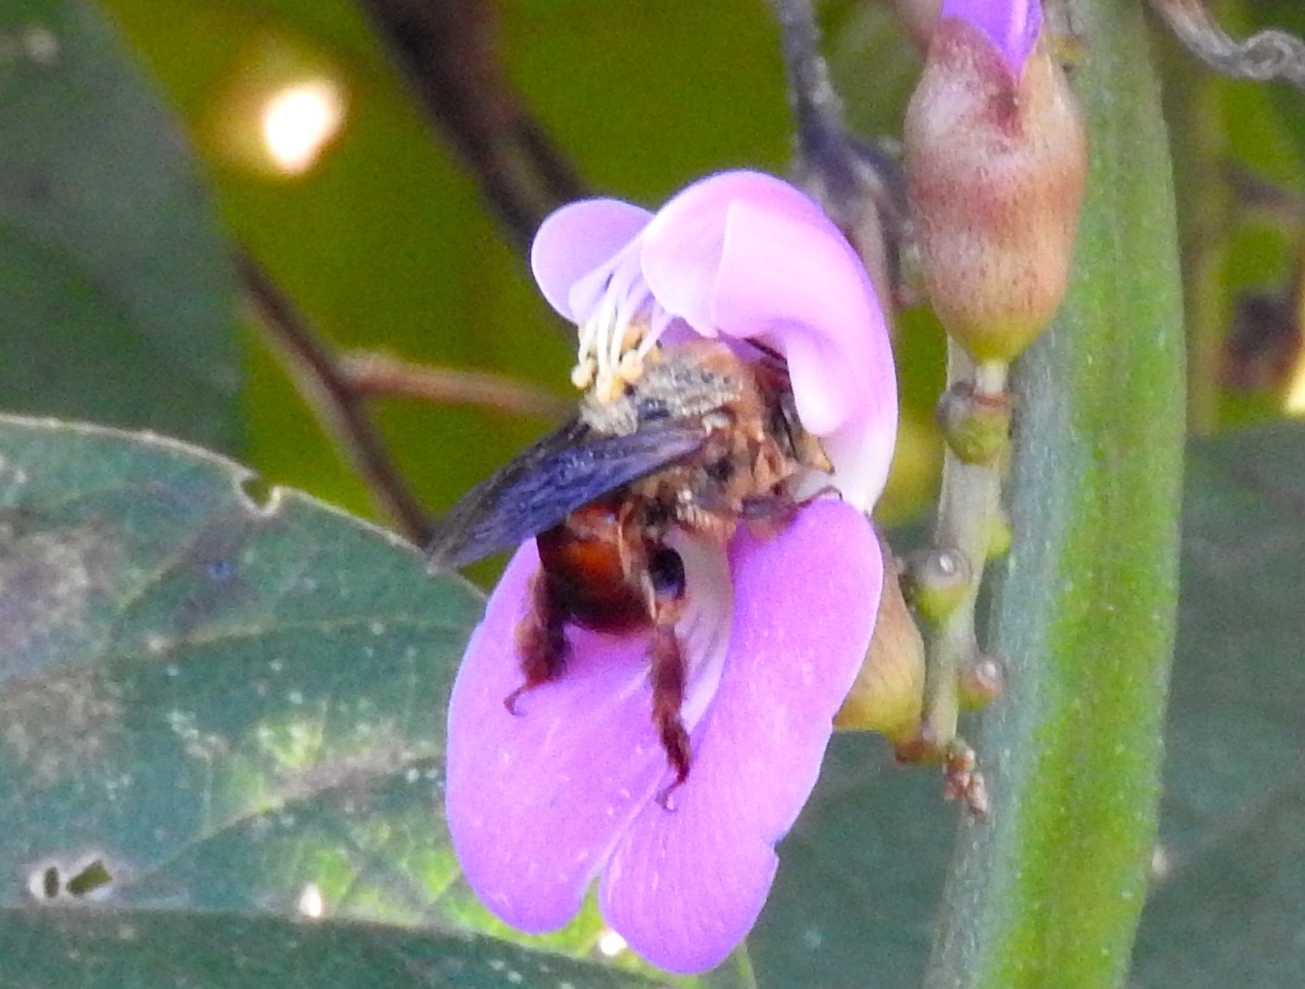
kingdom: Animalia
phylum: Arthropoda
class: Insecta
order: Hymenoptera
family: Apidae
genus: Centris
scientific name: Centris
